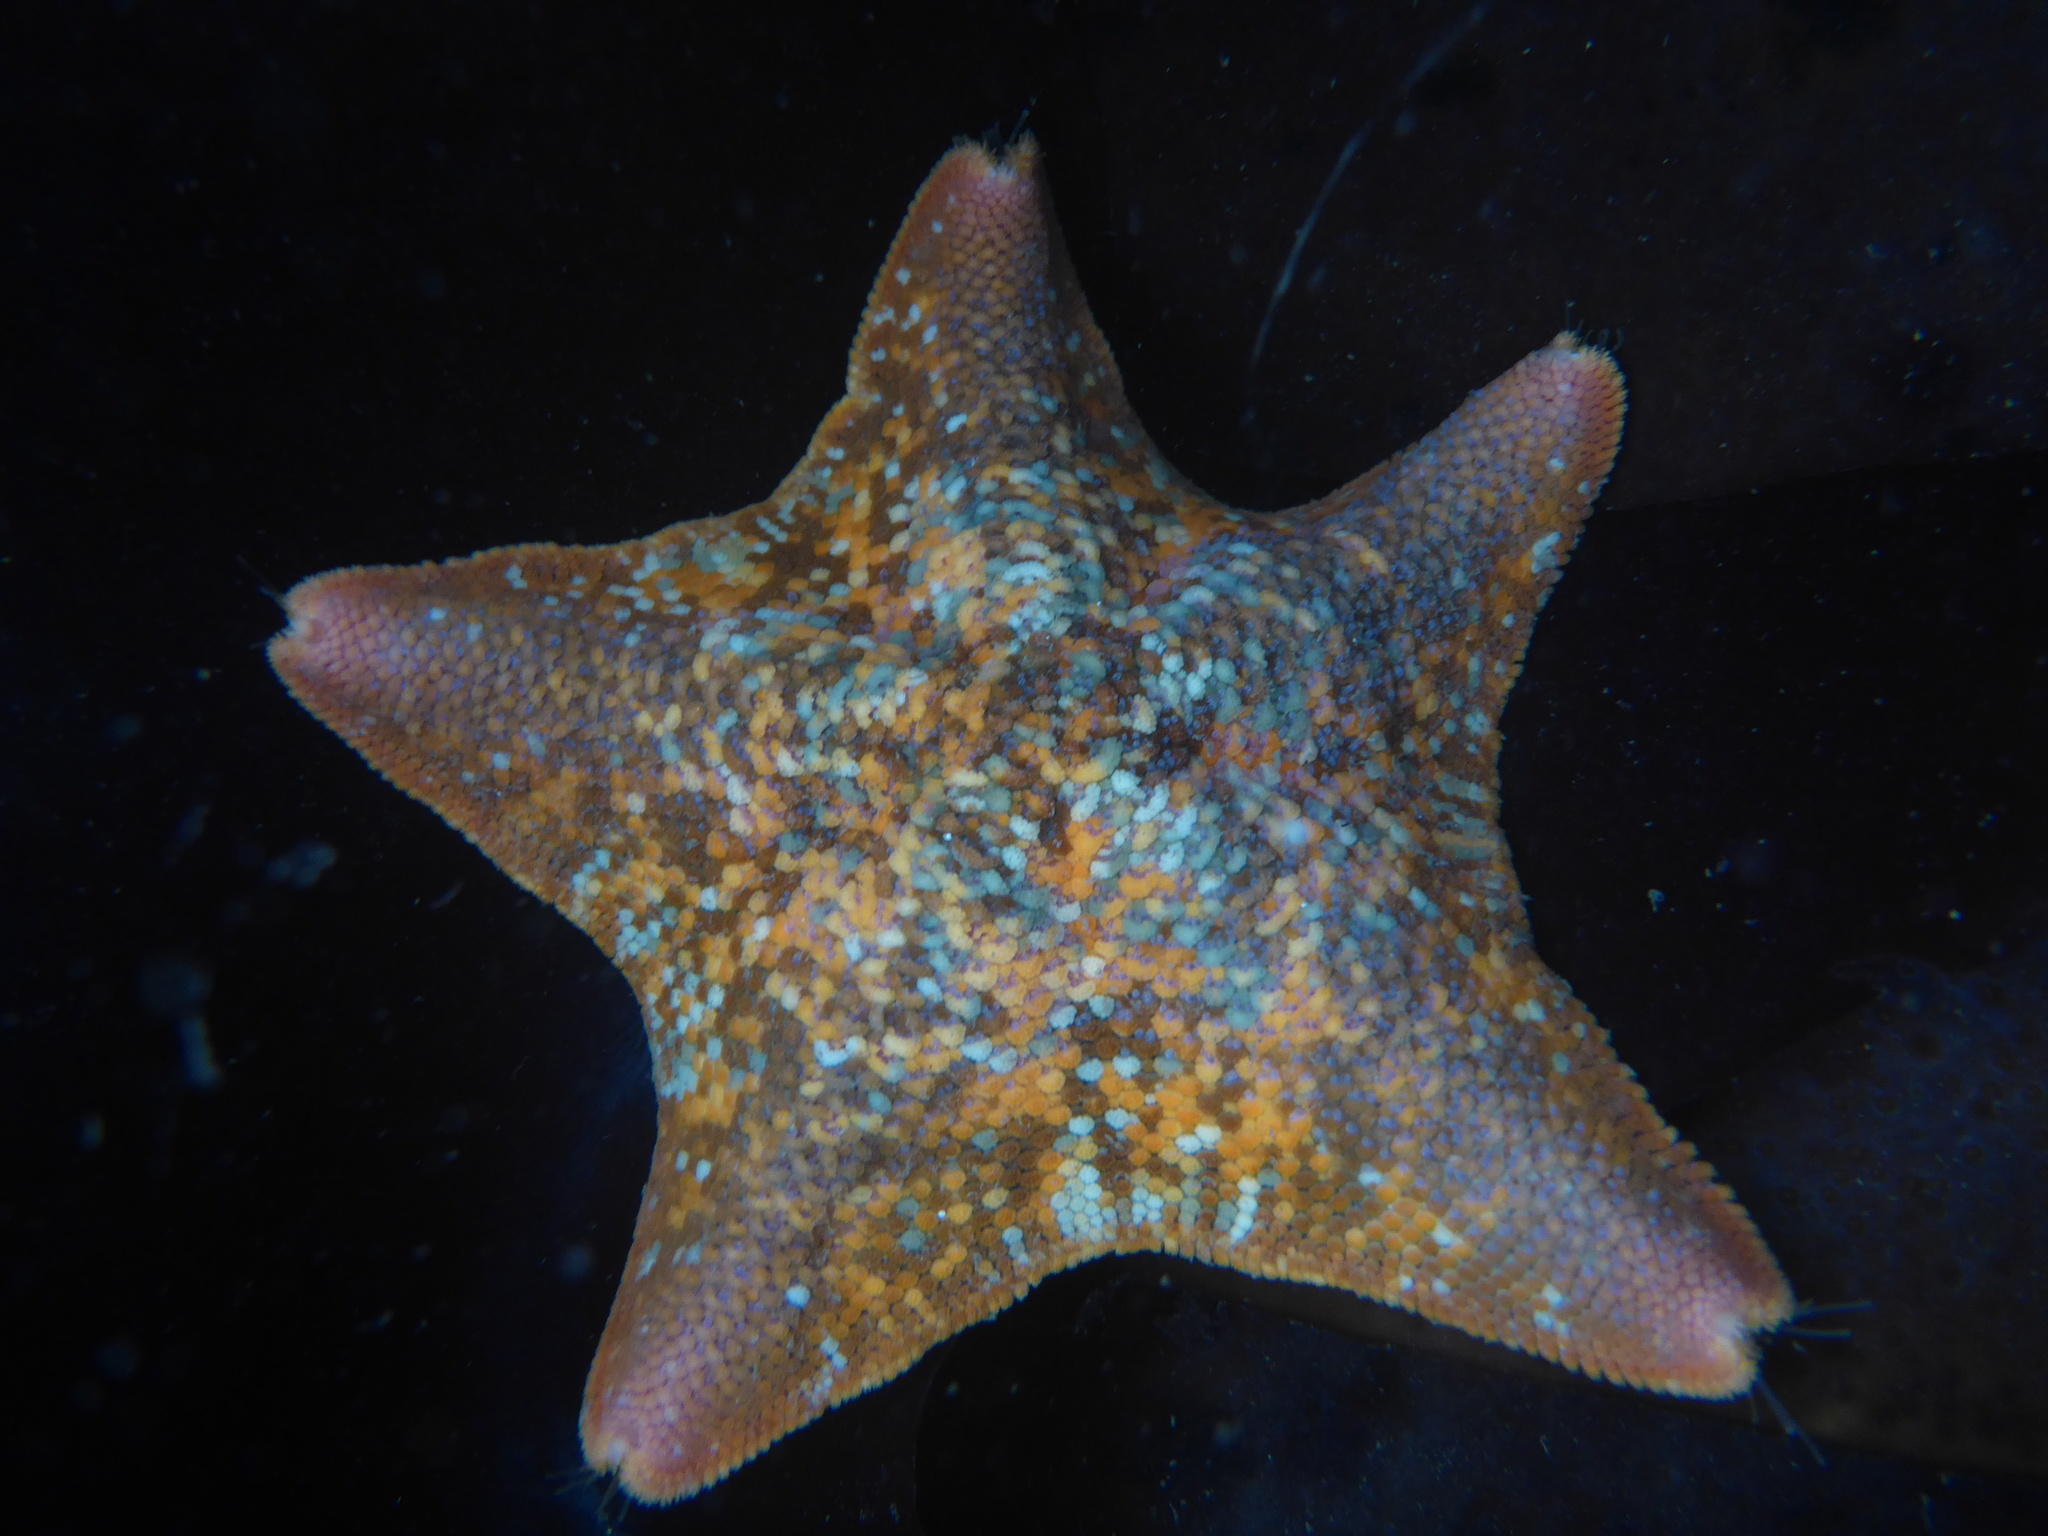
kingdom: Animalia
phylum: Echinodermata
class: Asteroidea
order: Valvatida
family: Asterinidae
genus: Patiria
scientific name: Patiria miniata
